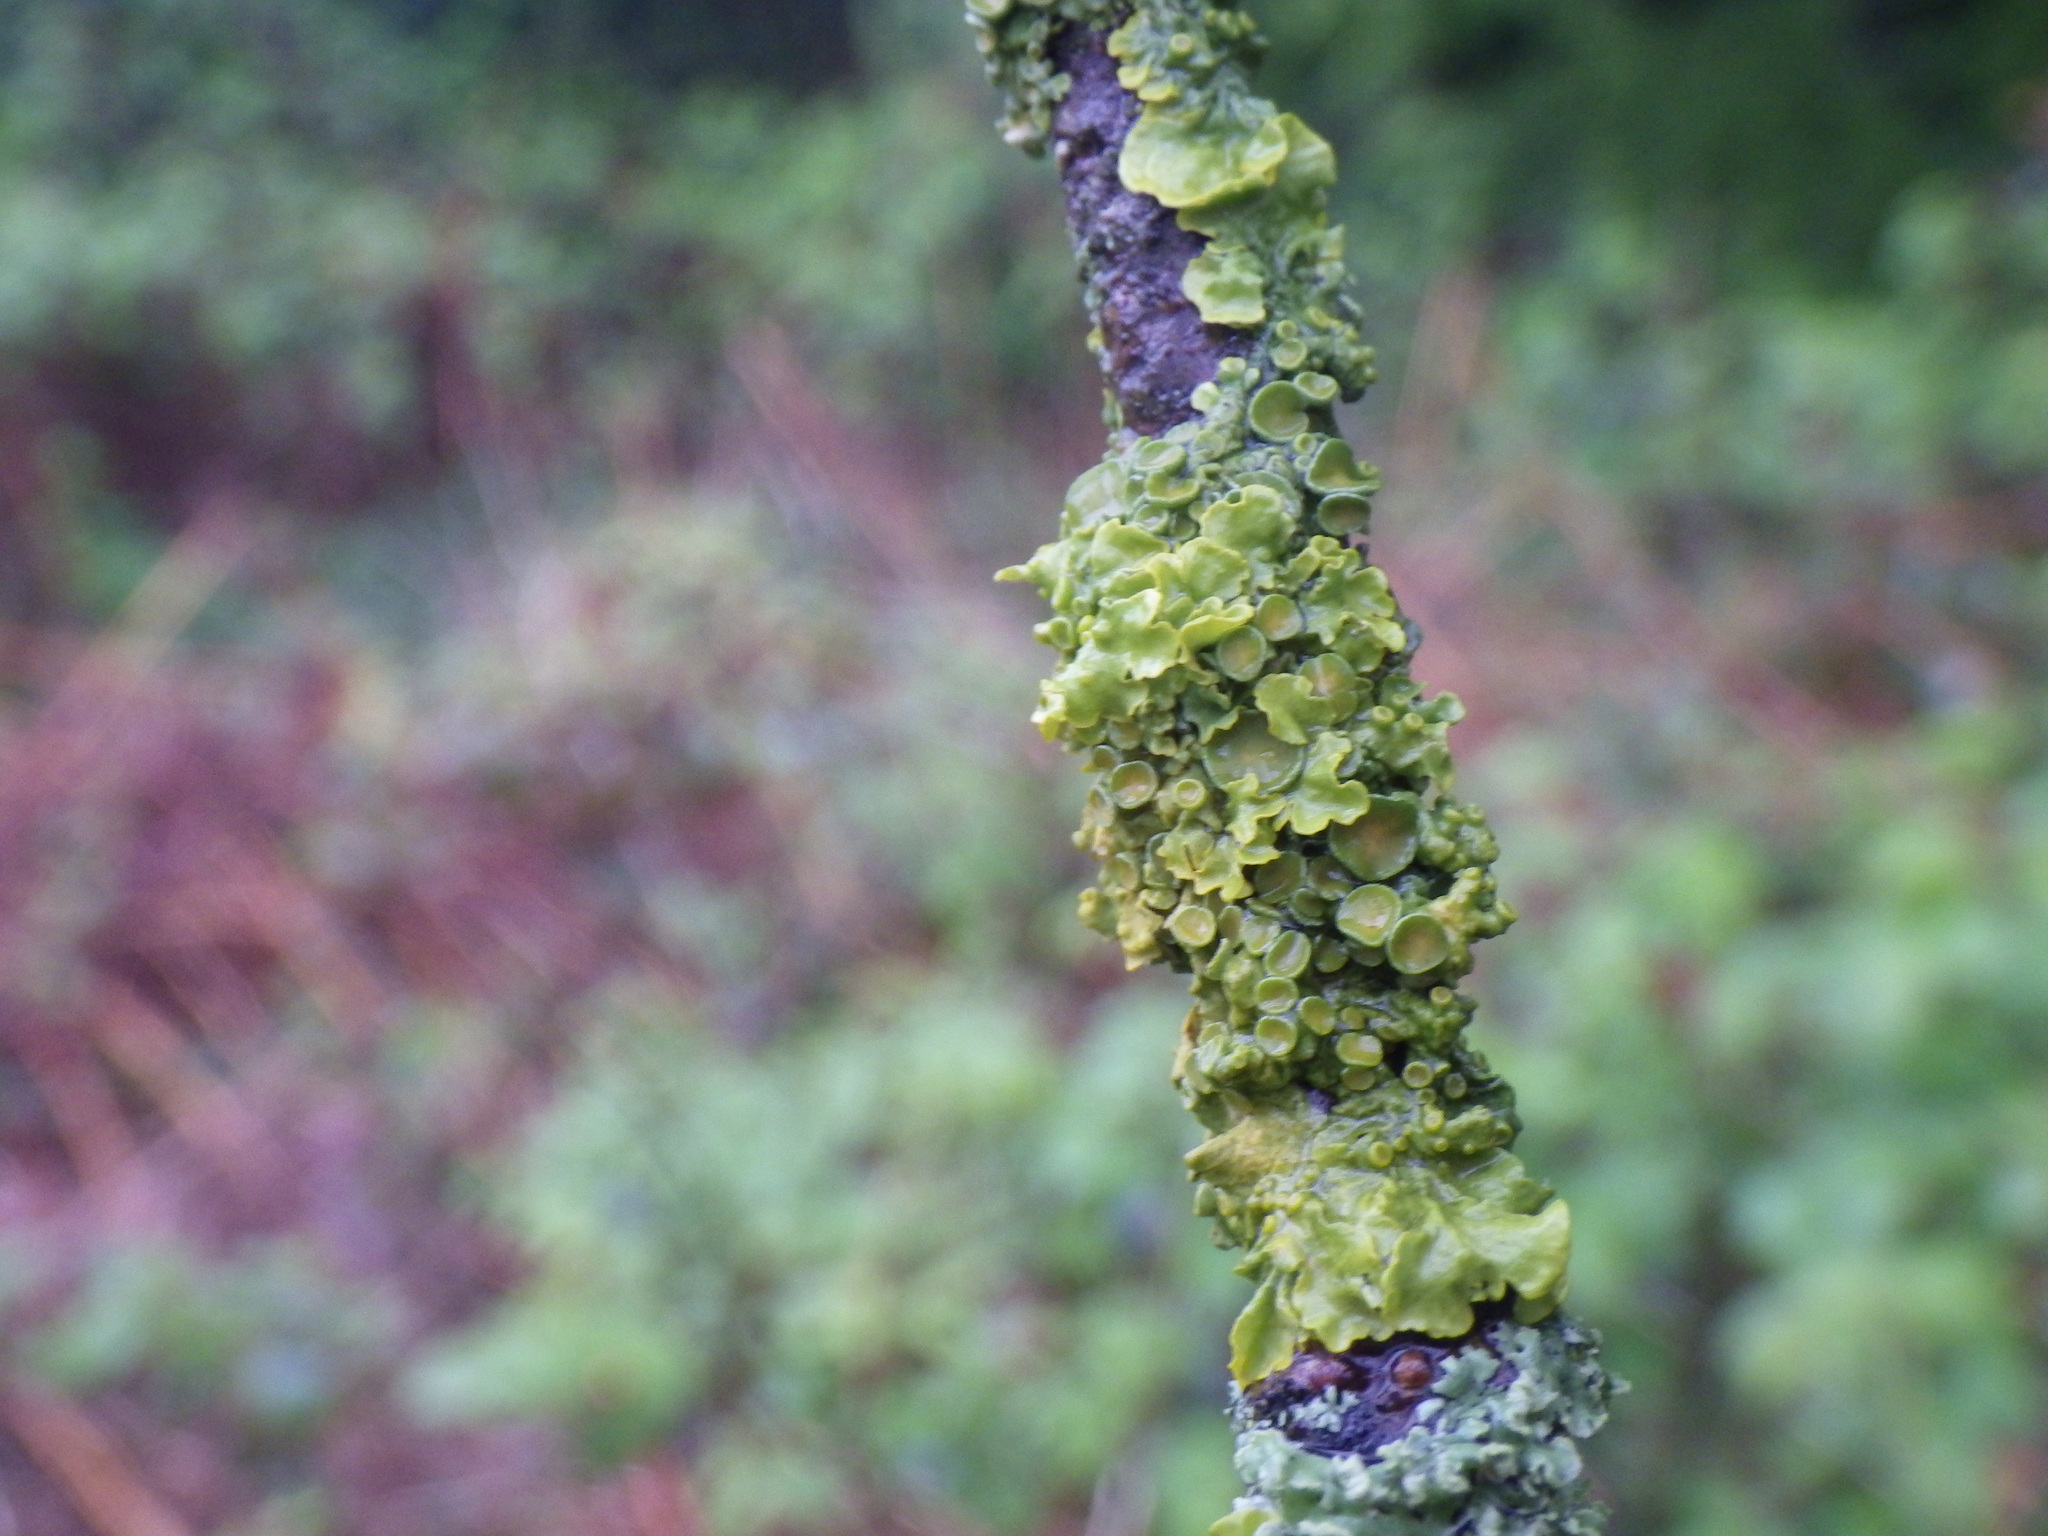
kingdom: Fungi
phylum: Ascomycota
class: Lecanoromycetes
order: Teloschistales
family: Teloschistaceae
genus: Xanthoria
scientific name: Xanthoria parietina
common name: Common orange lichen
